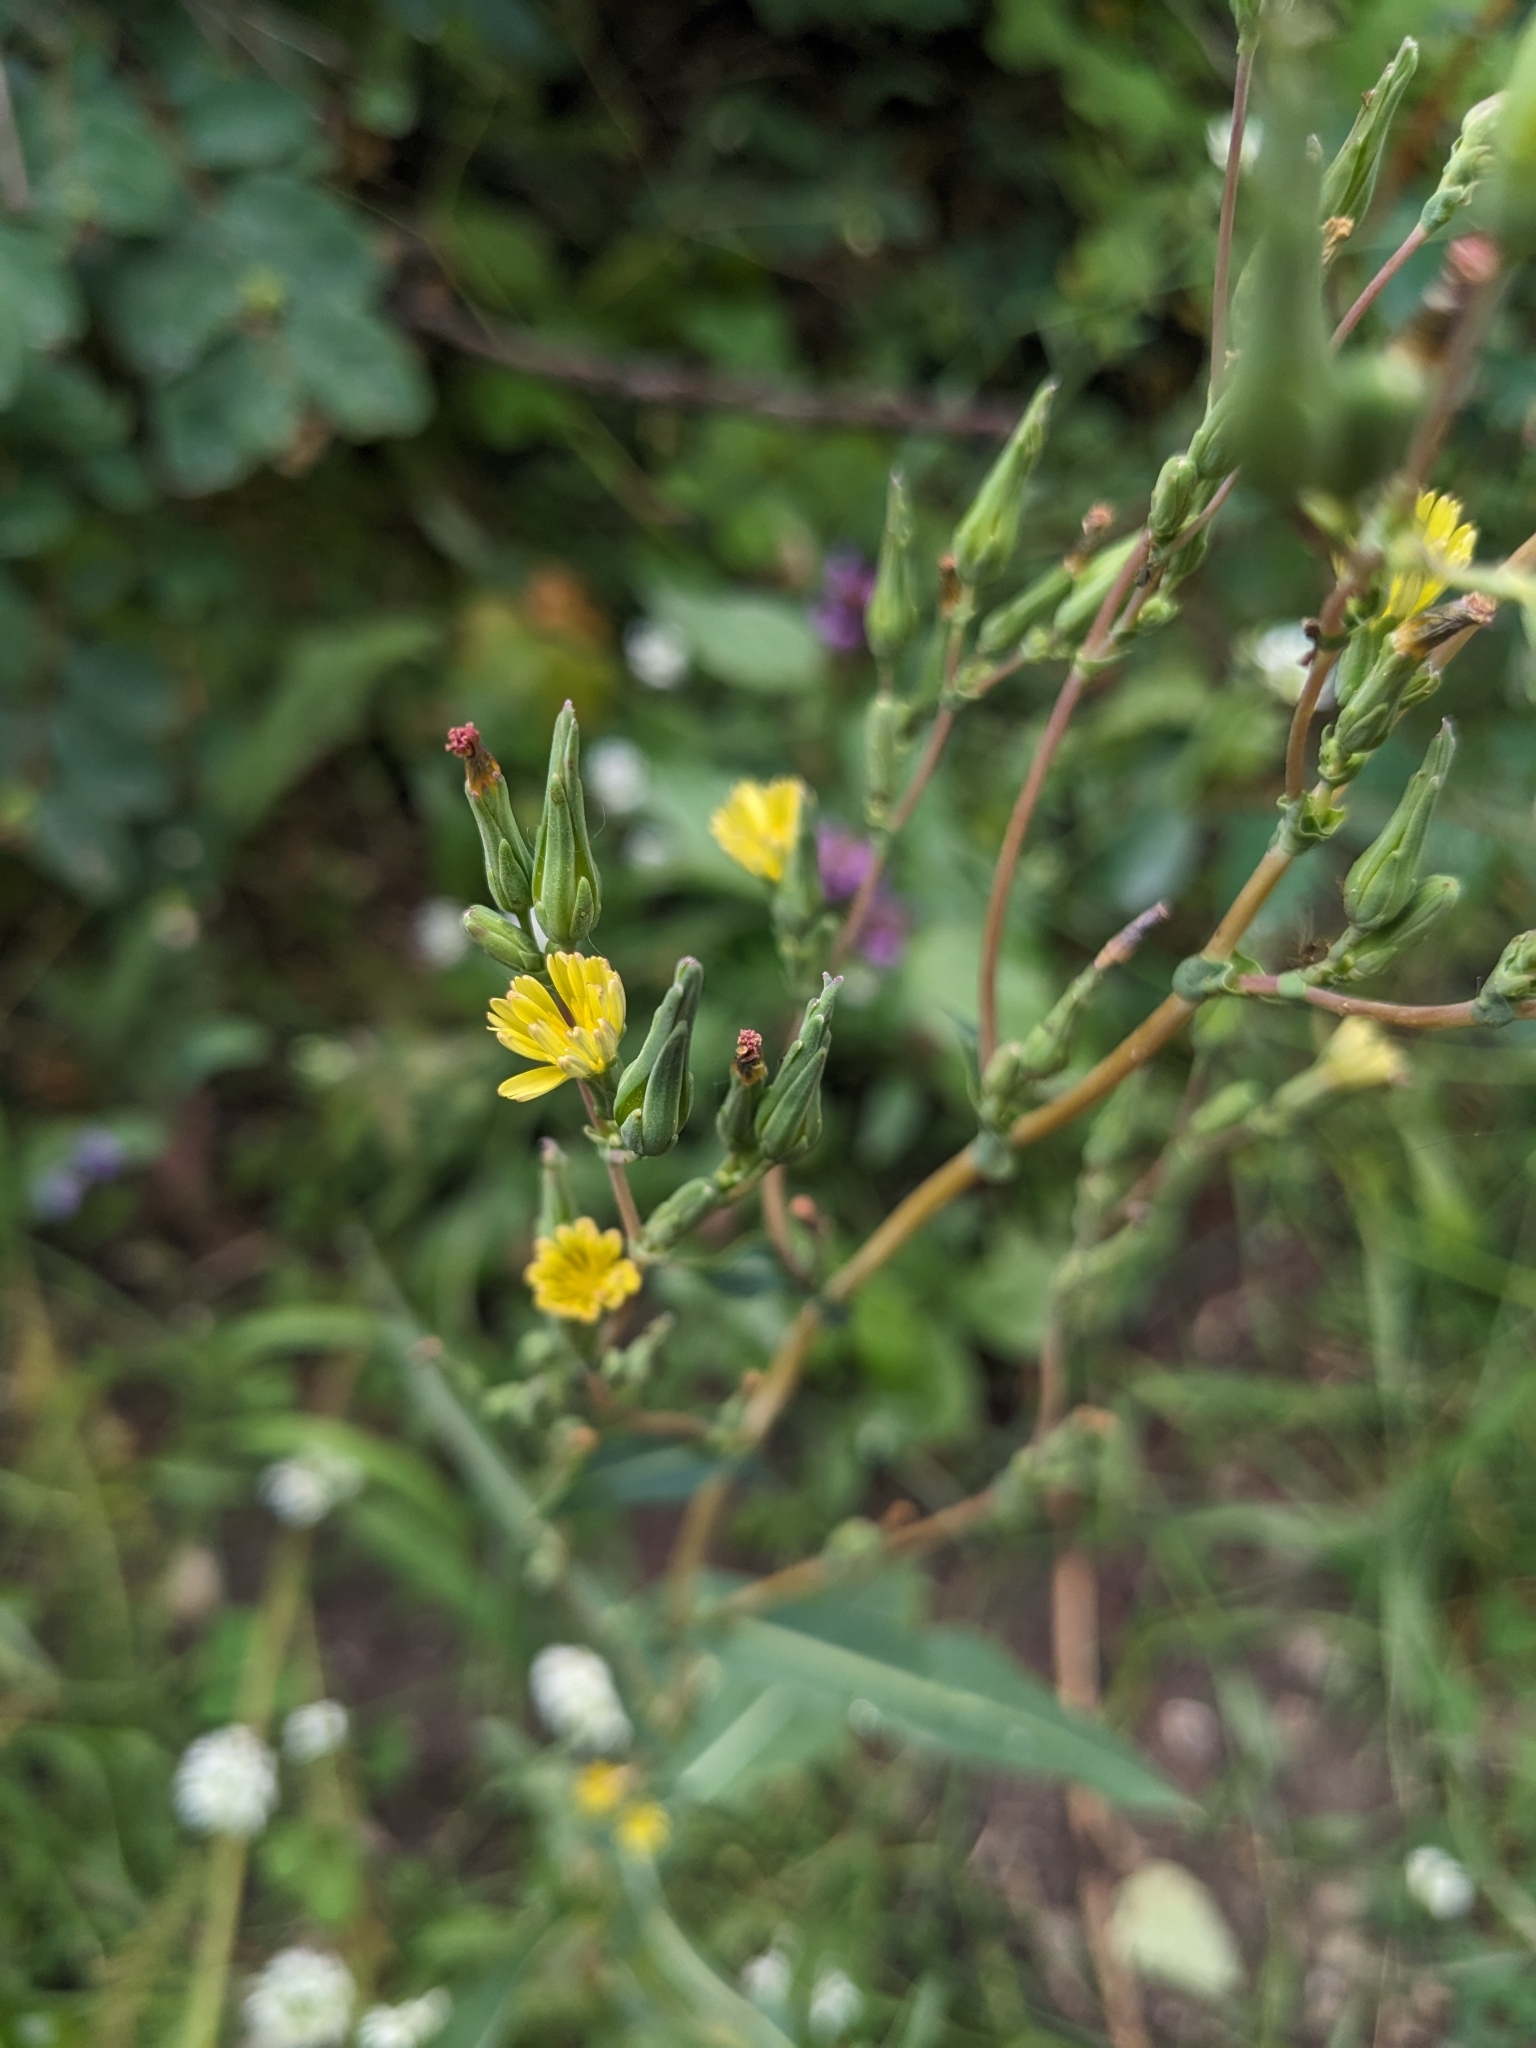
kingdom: Plantae
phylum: Tracheophyta
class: Magnoliopsida
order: Asterales
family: Asteraceae
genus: Lactuca
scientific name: Lactuca serriola
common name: Prickly lettuce
